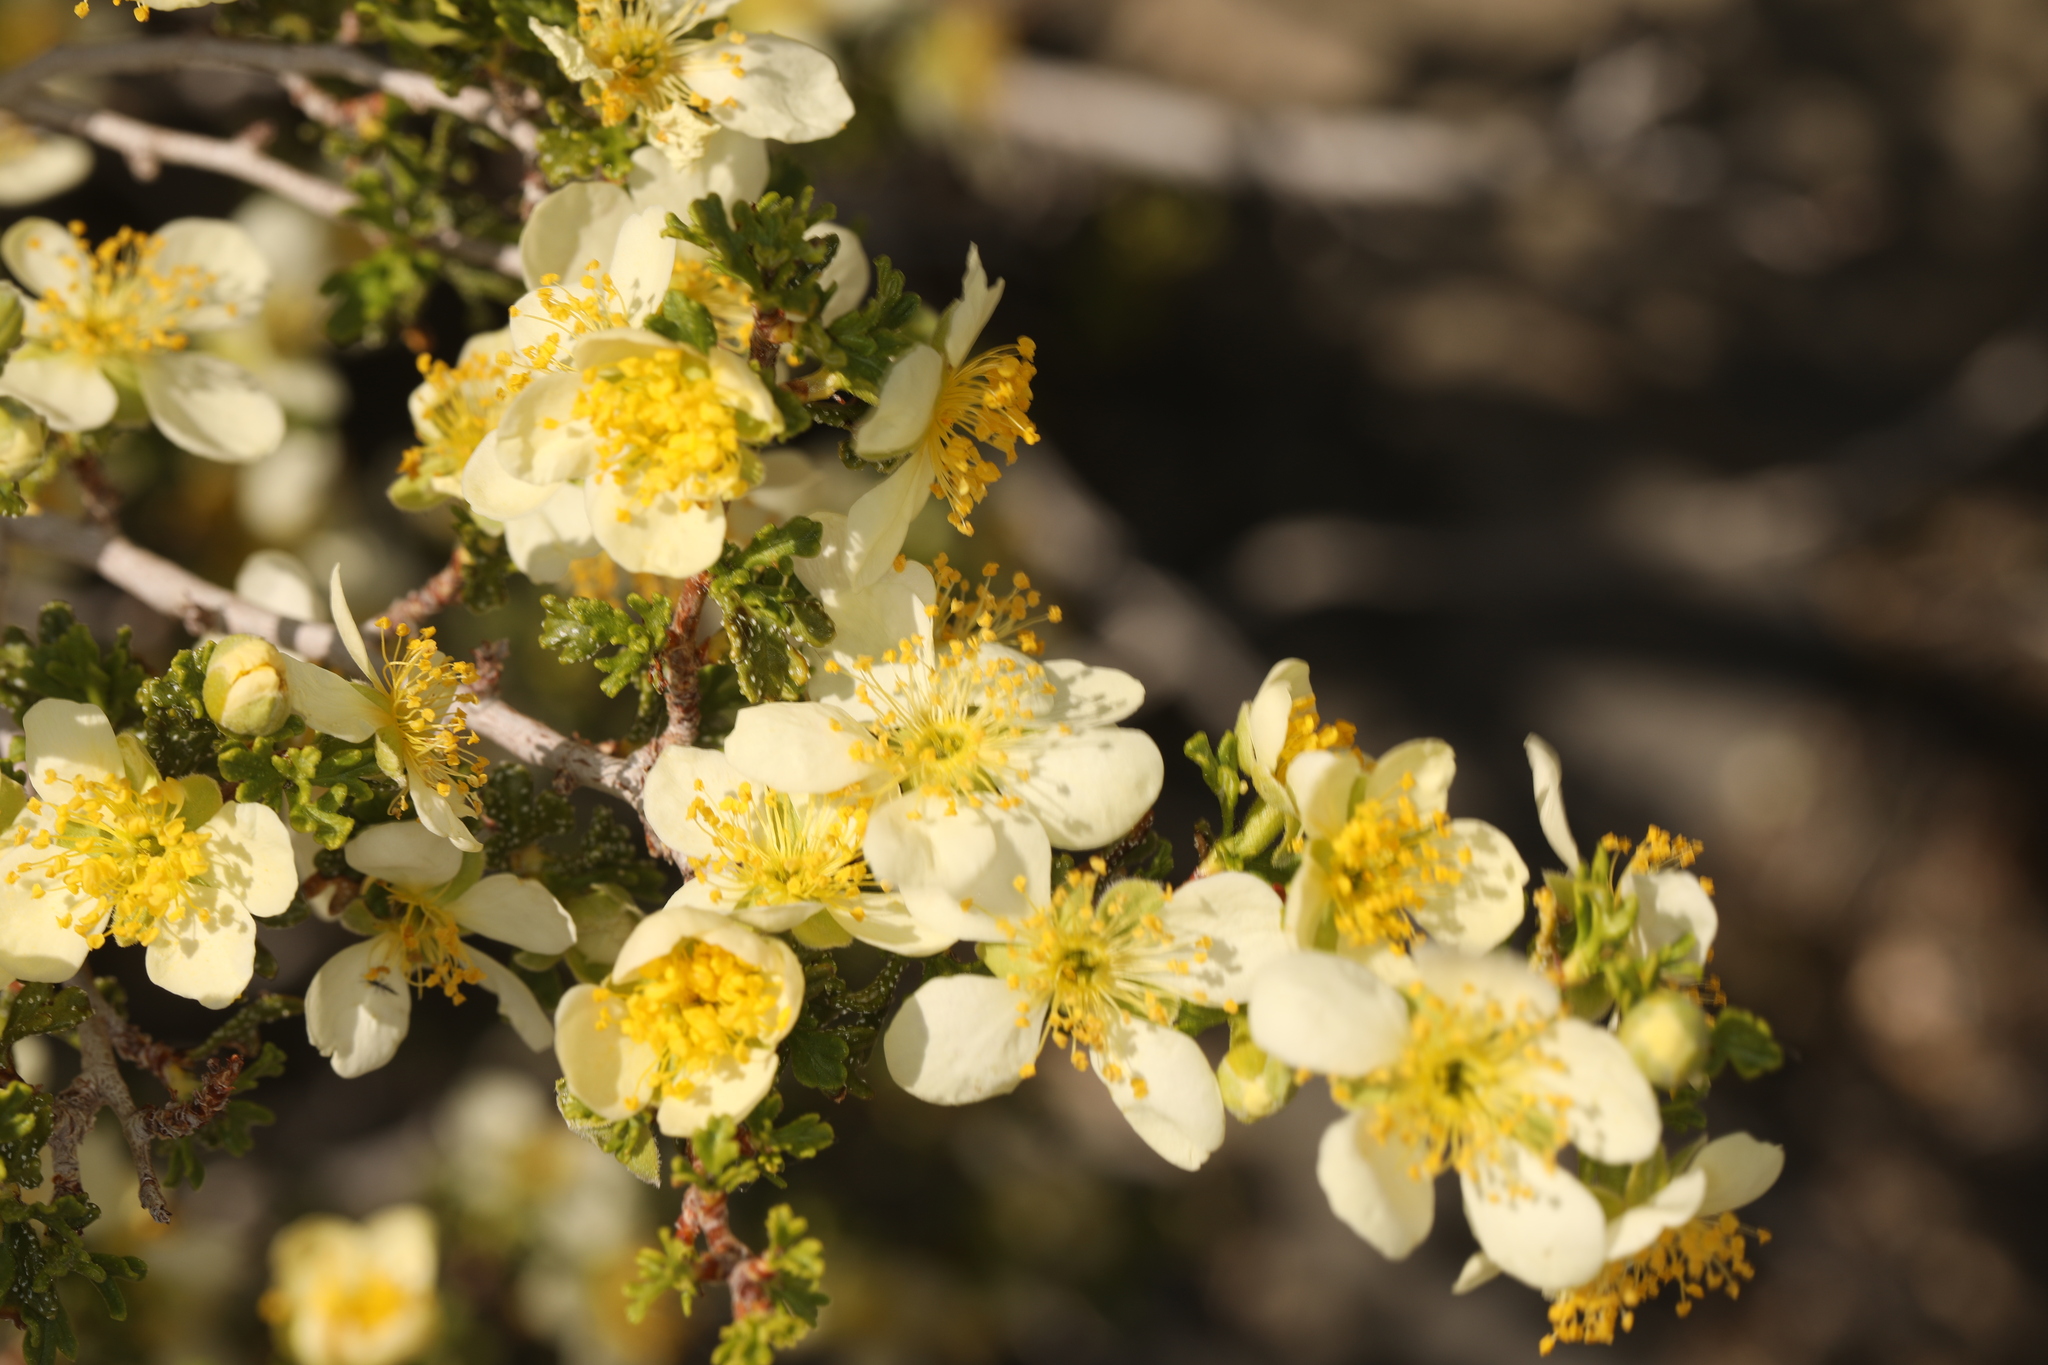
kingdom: Plantae
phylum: Tracheophyta
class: Magnoliopsida
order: Rosales
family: Rosaceae
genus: Purshia
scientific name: Purshia stansburiana
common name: Stansbury's cliffrose
